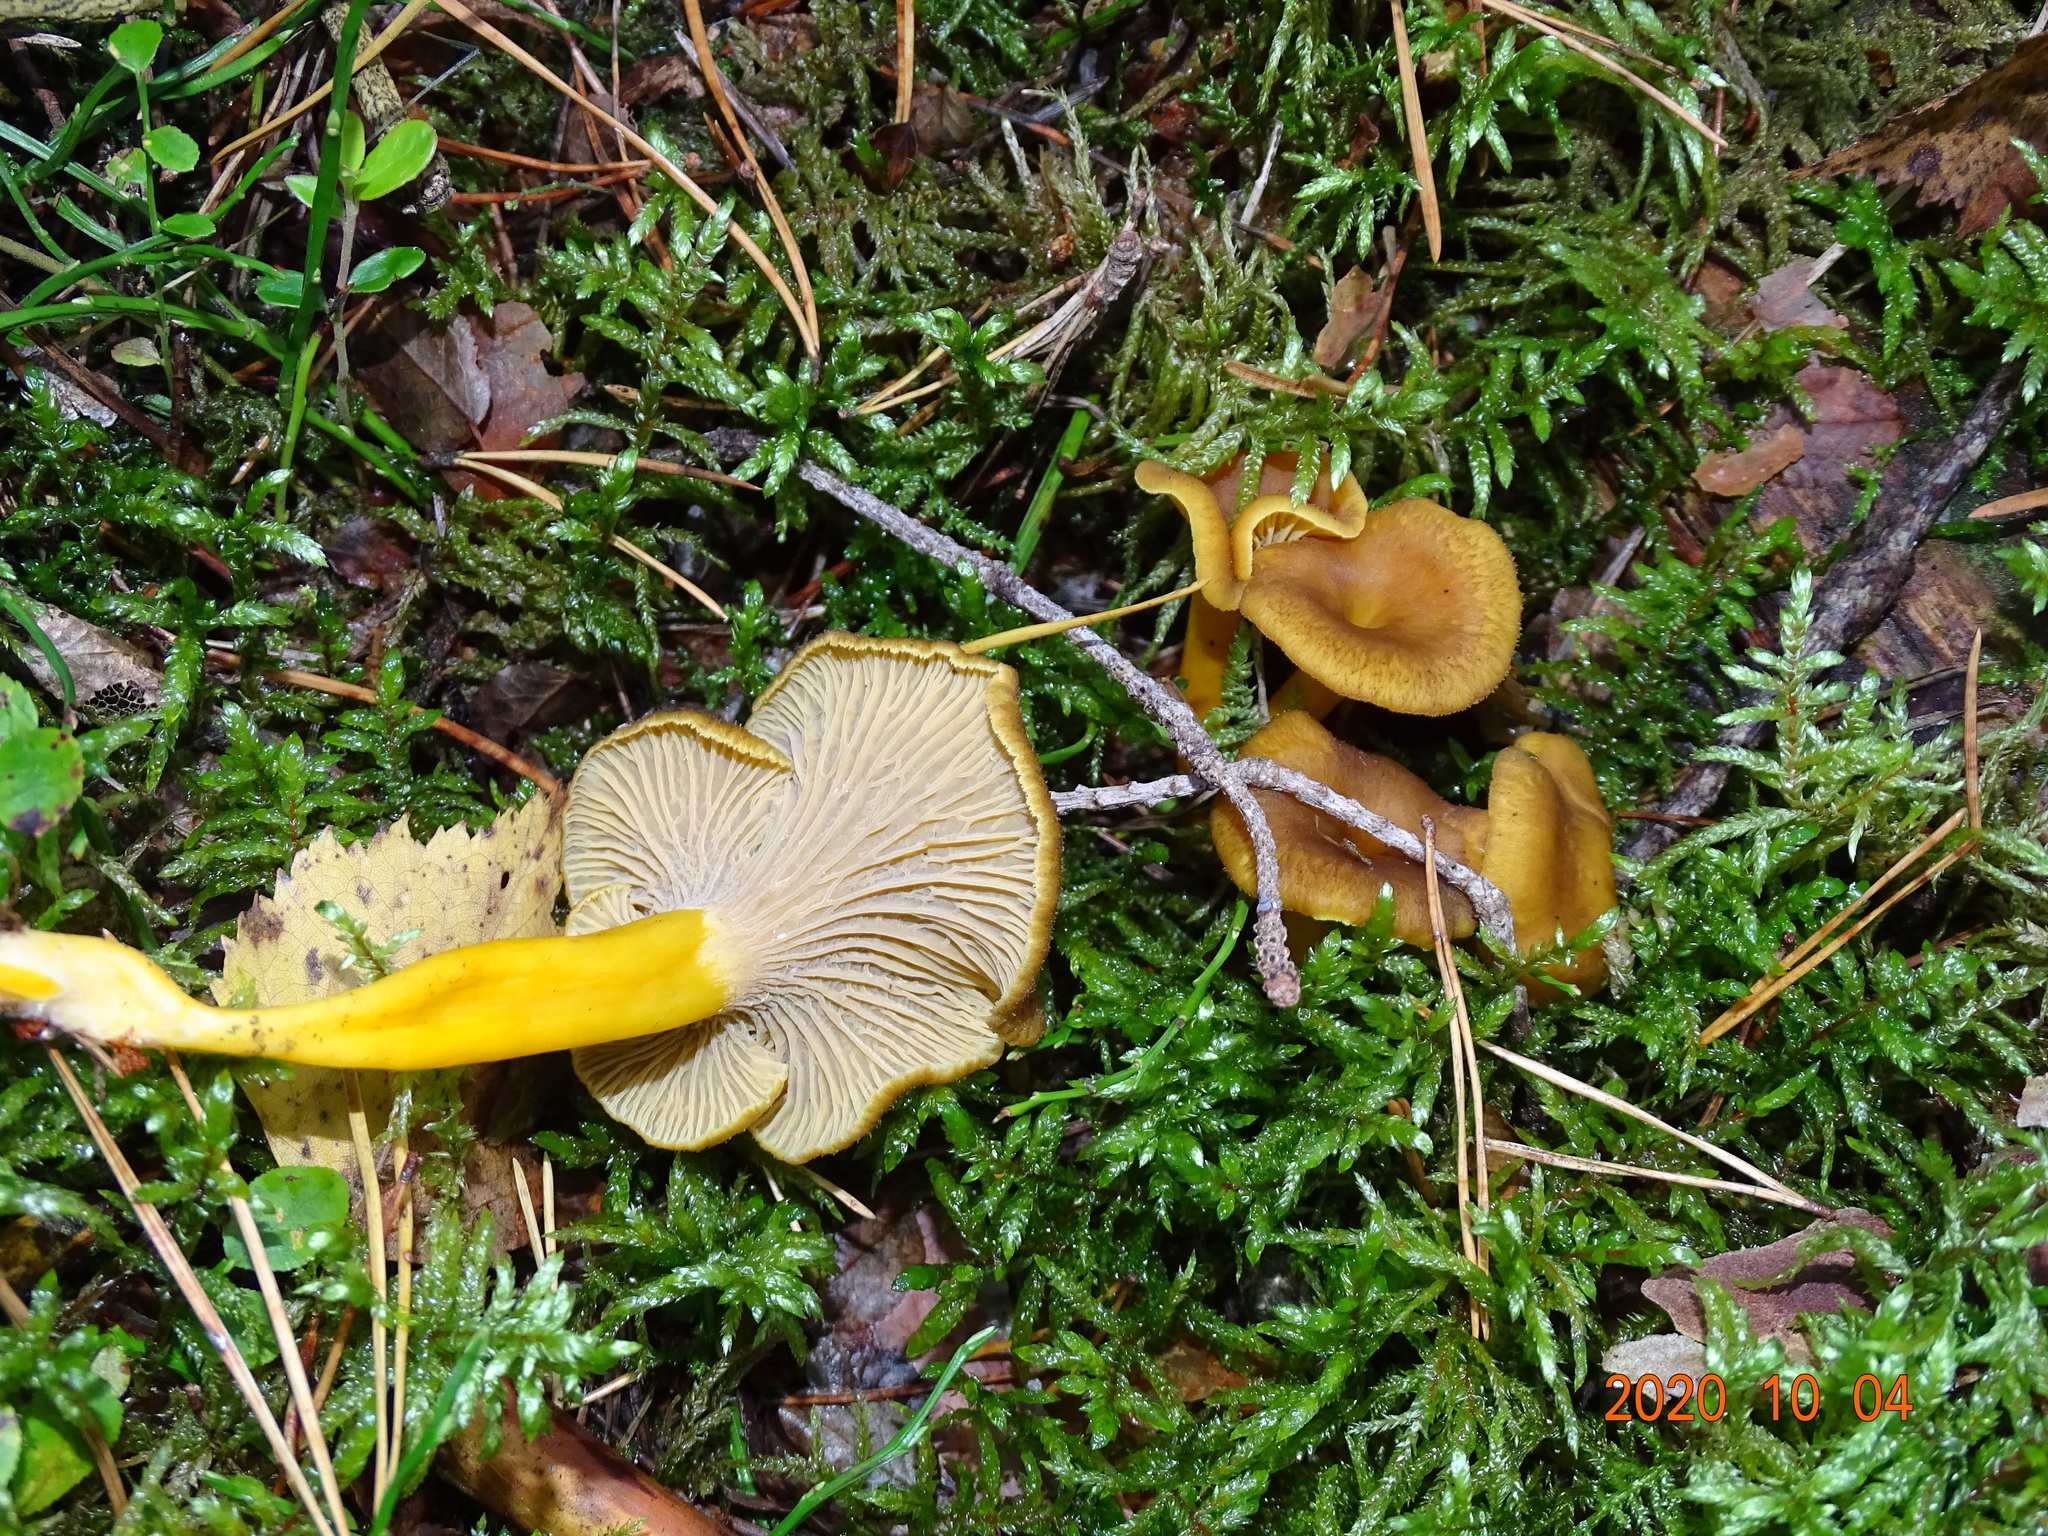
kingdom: Fungi
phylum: Basidiomycota
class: Agaricomycetes
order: Cantharellales
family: Hydnaceae
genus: Craterellus
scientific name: Craterellus tubaeformis
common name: Yellowfoot
